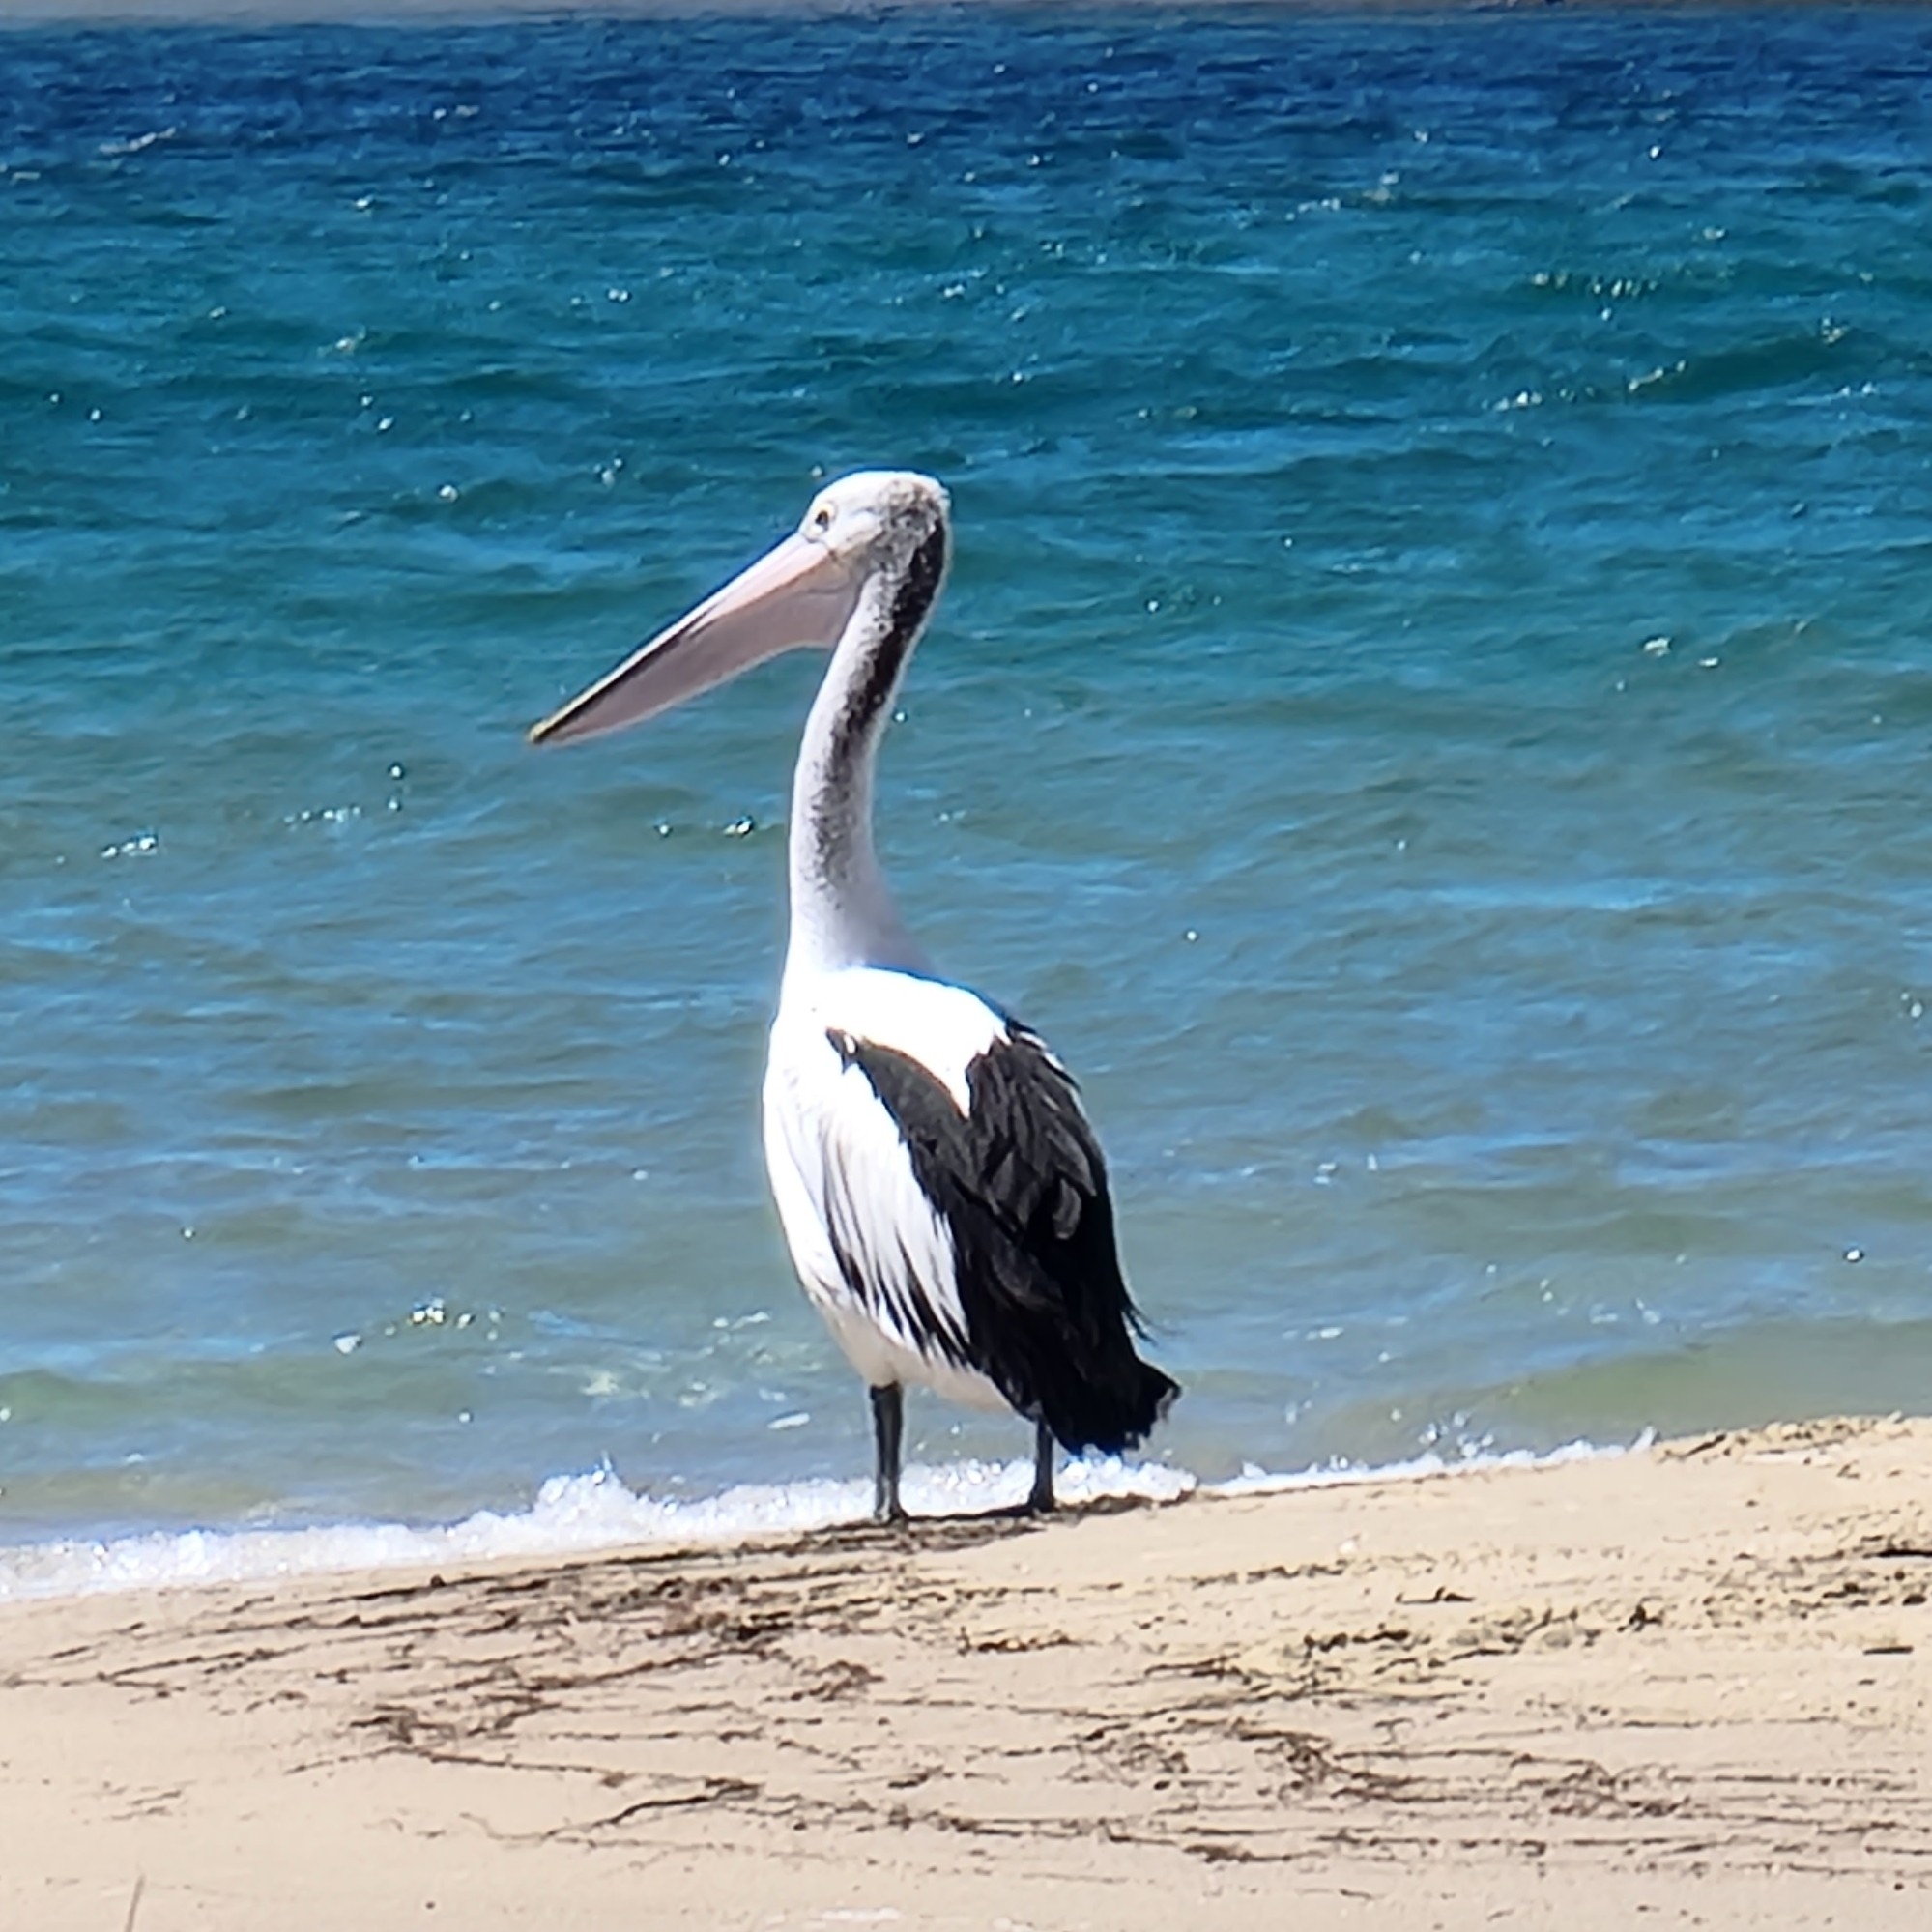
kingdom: Animalia
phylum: Chordata
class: Aves
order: Pelecaniformes
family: Pelecanidae
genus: Pelecanus
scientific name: Pelecanus conspicillatus
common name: Australian pelican
